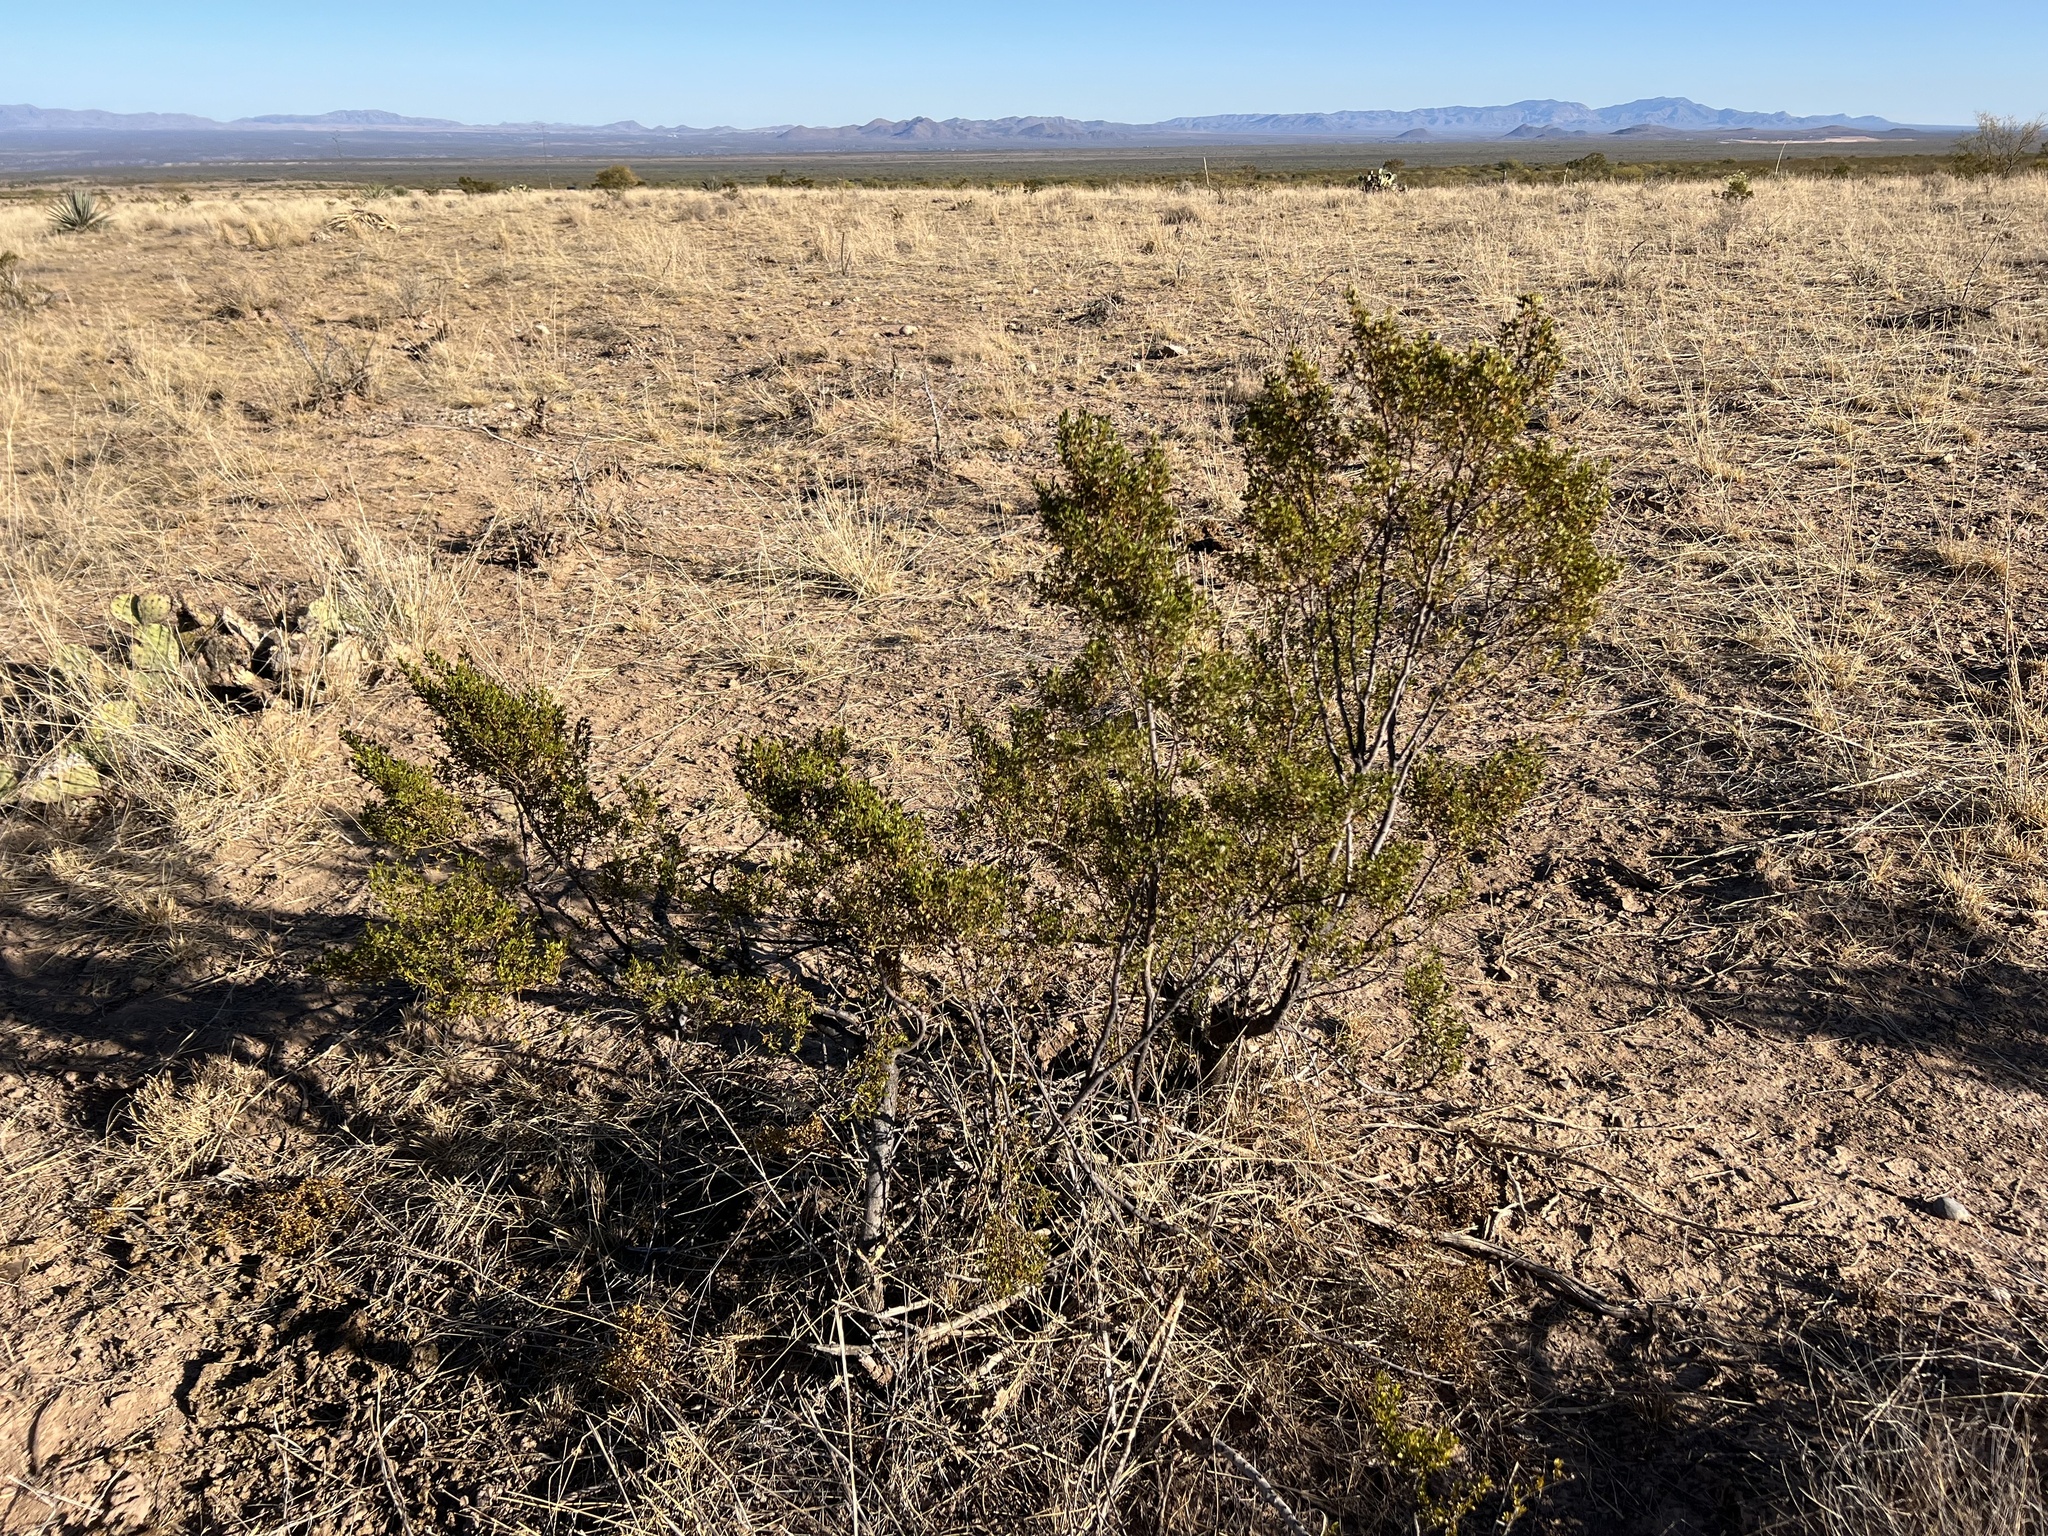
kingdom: Plantae
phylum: Tracheophyta
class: Magnoliopsida
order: Zygophyllales
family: Zygophyllaceae
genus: Larrea
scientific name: Larrea tridentata
